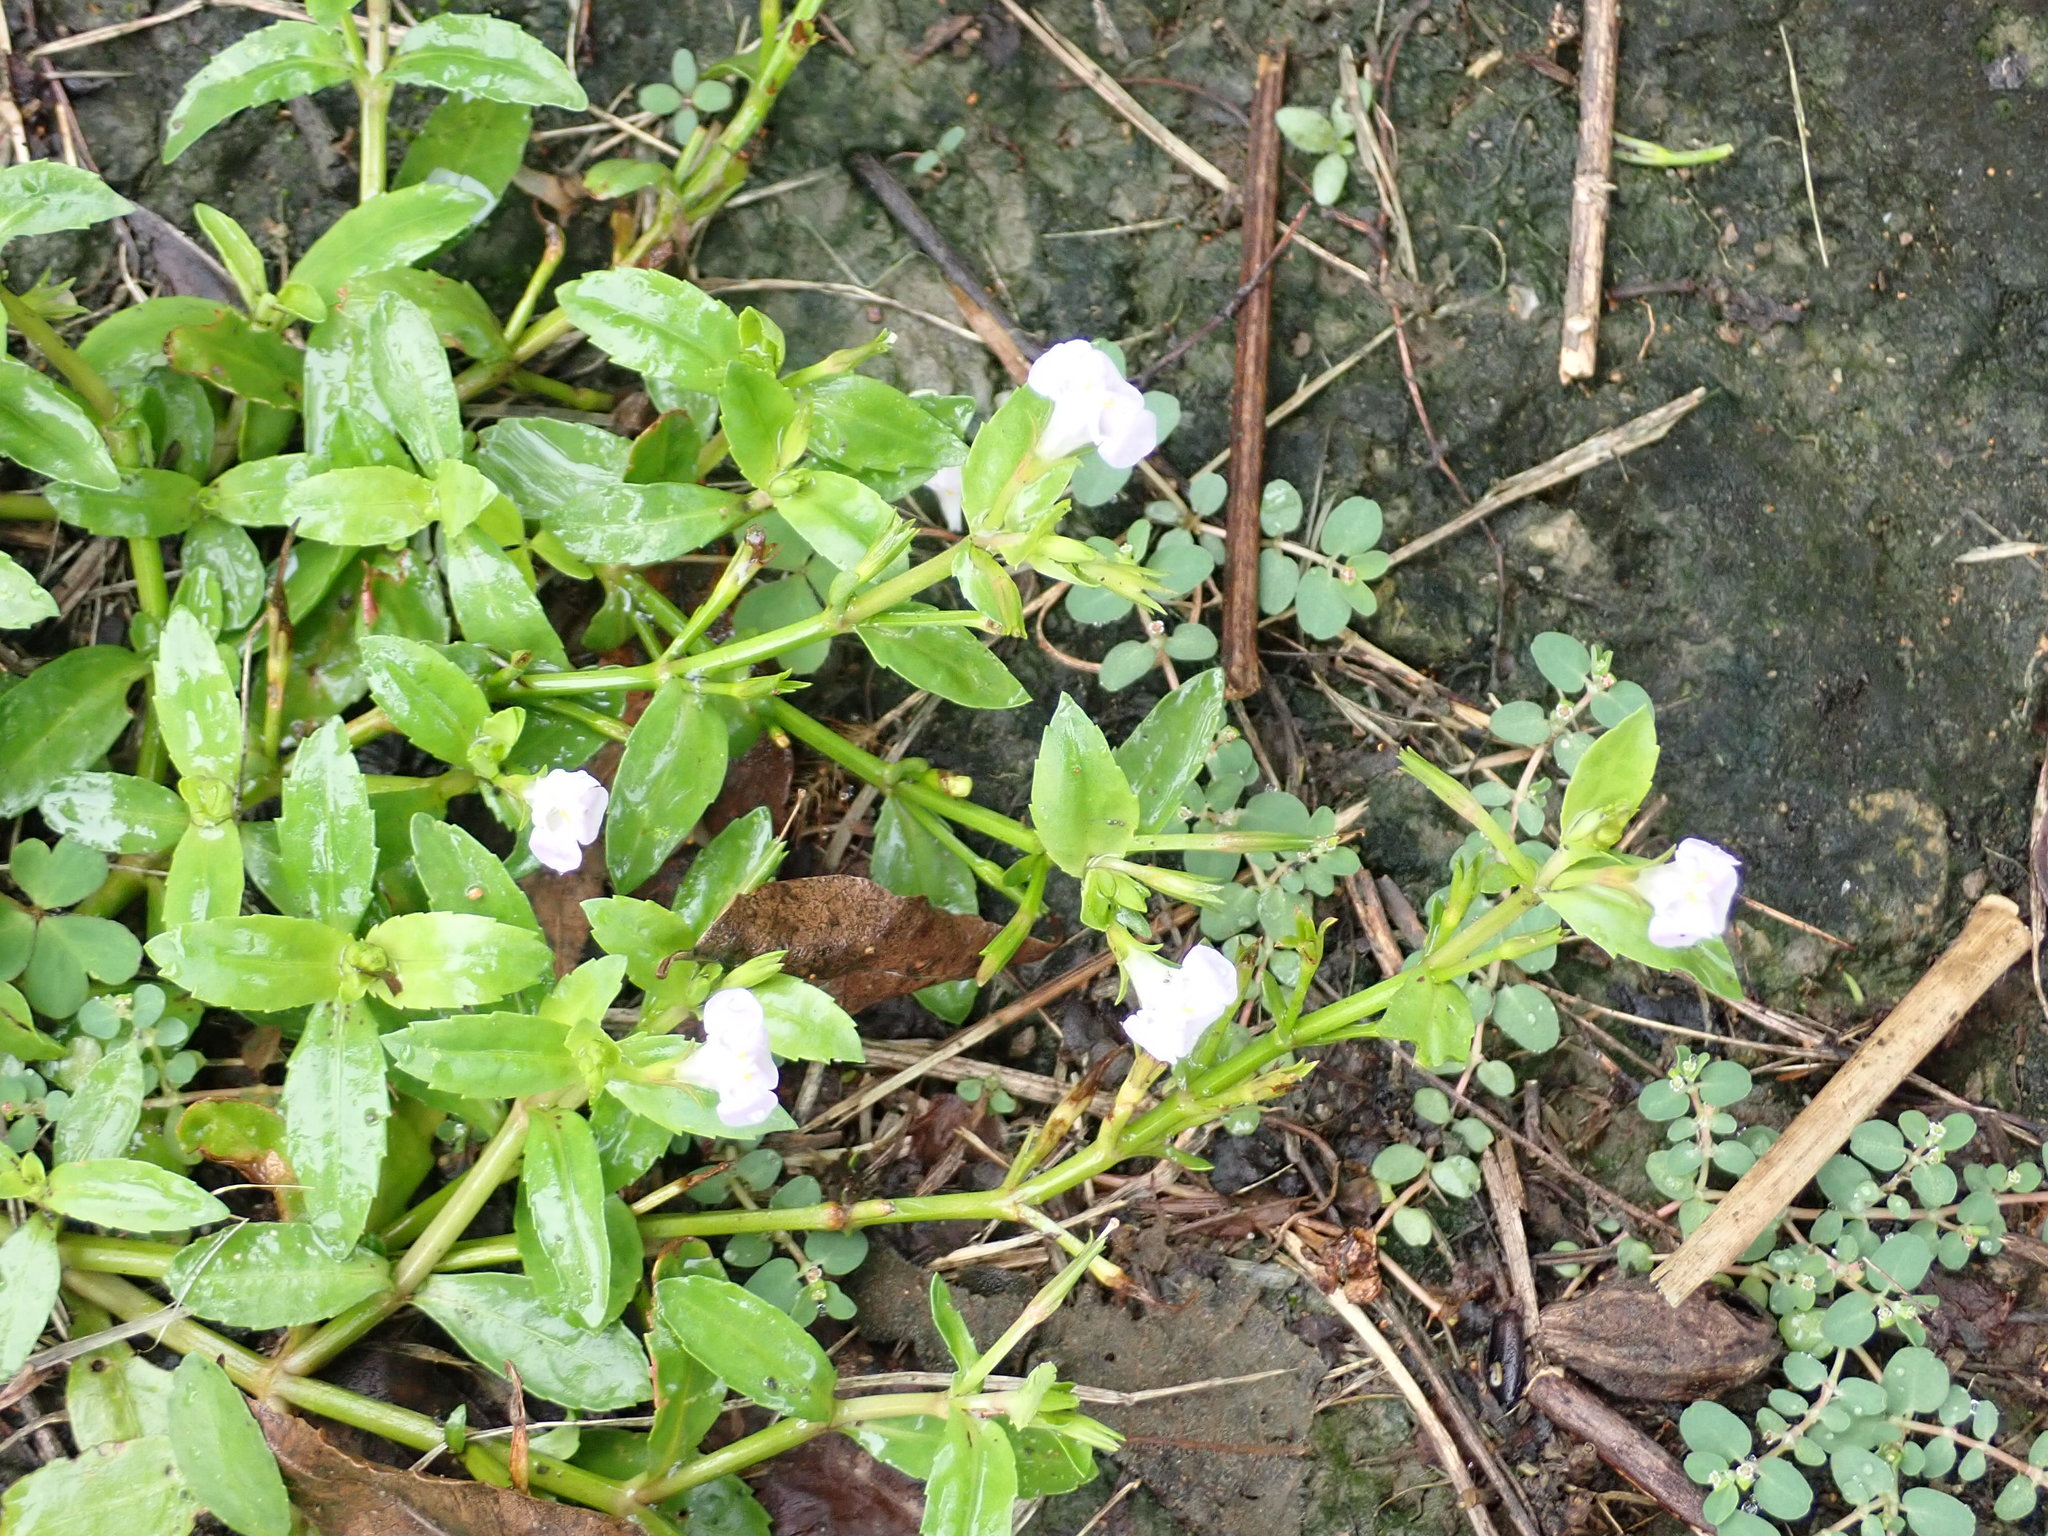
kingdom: Plantae
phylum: Tracheophyta
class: Magnoliopsida
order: Lamiales
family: Linderniaceae
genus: Bonnaya
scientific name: Bonnaya antipoda
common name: Sparrow false pimpernel
